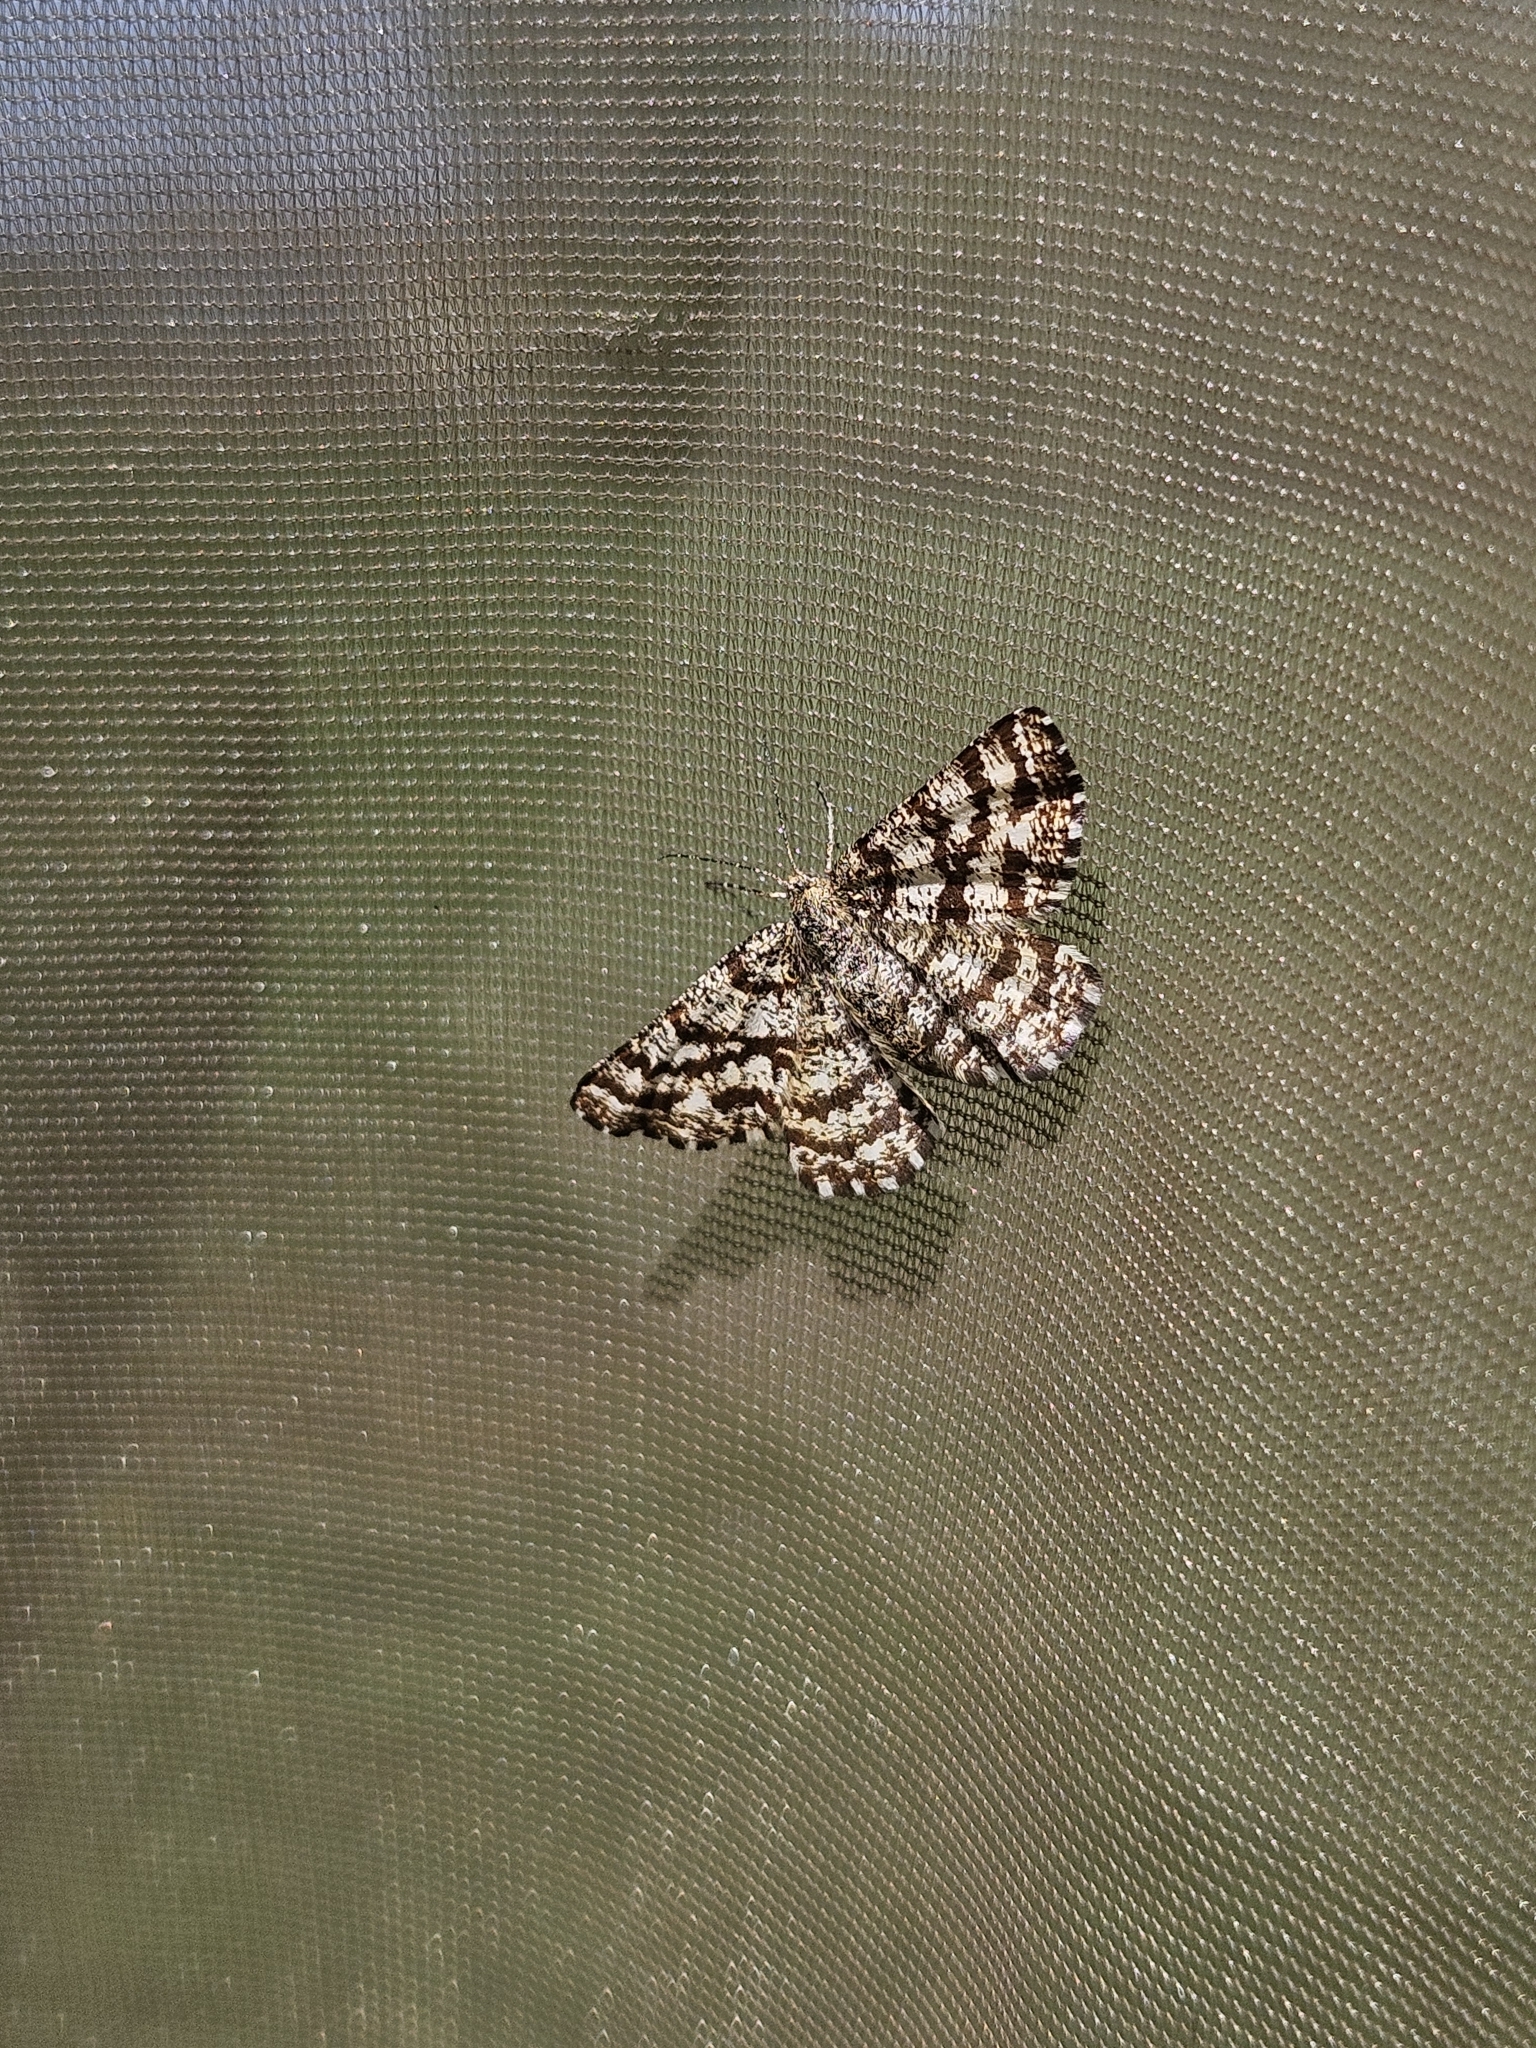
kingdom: Animalia
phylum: Arthropoda
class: Insecta
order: Lepidoptera
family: Geometridae
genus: Ematurga
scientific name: Ematurga atomaria
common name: Common heath
